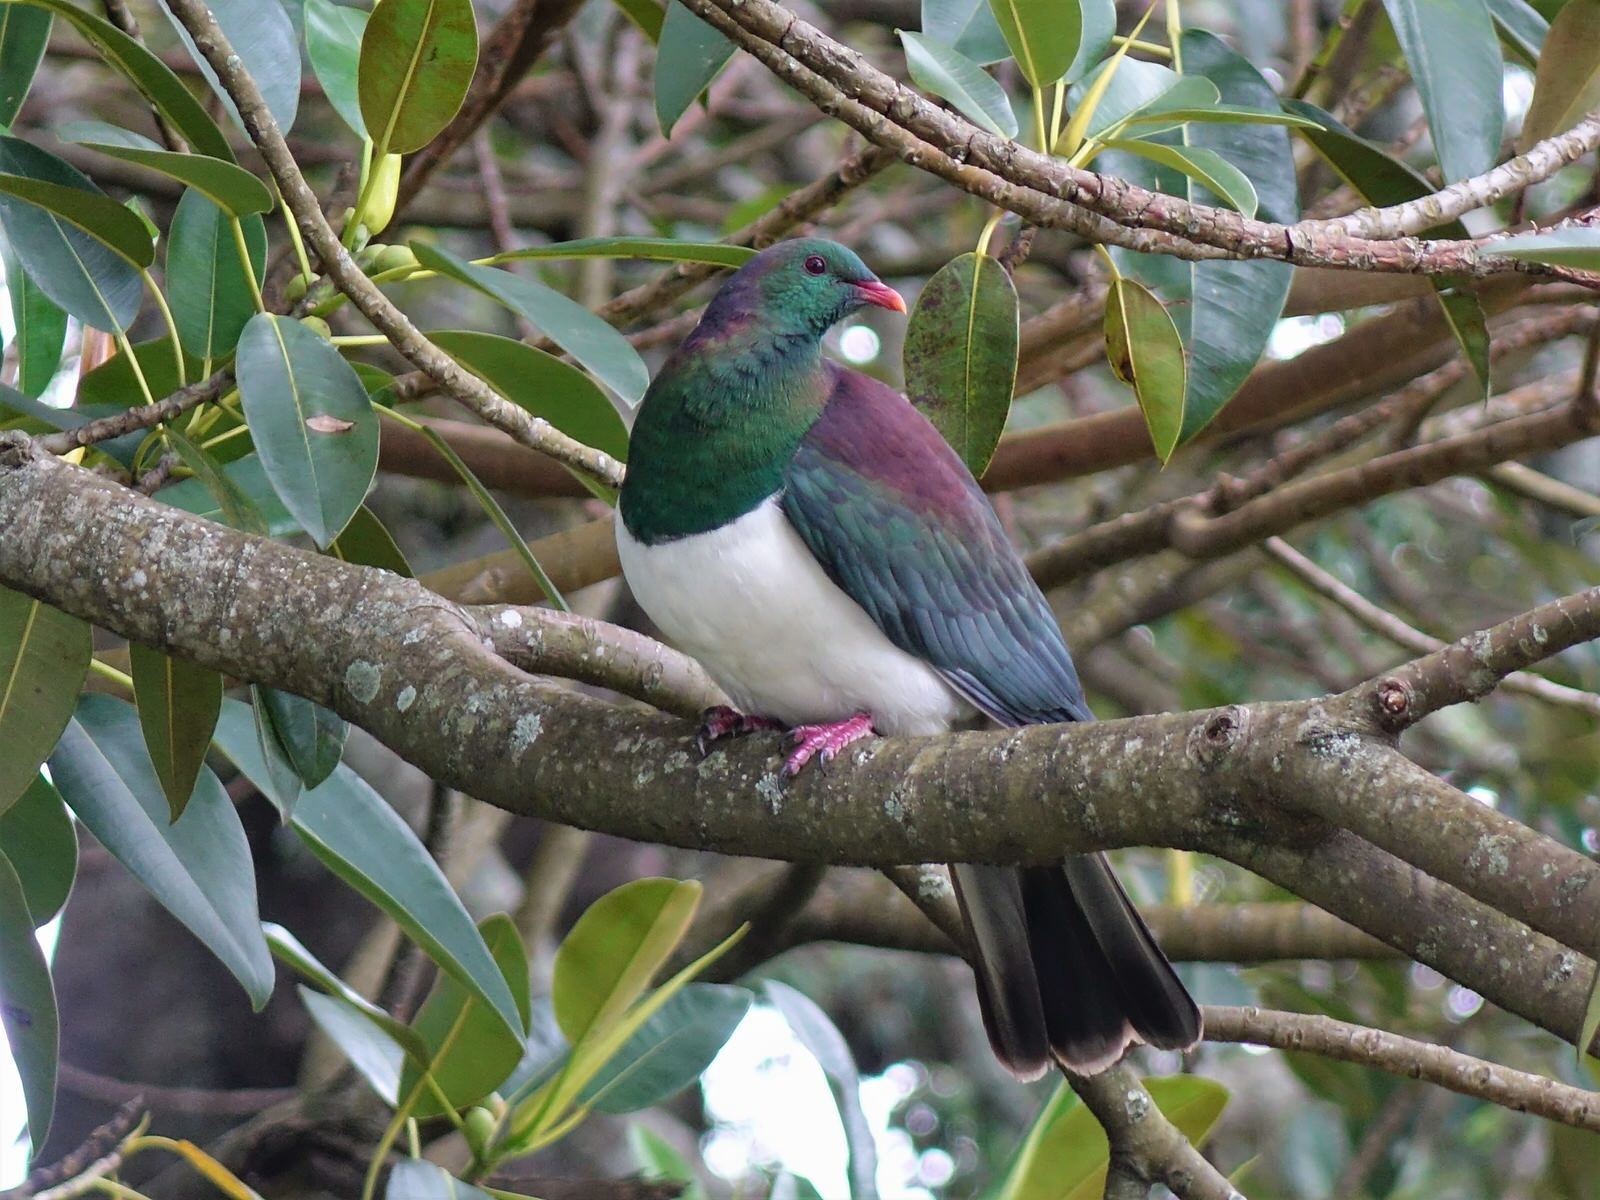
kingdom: Animalia
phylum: Chordata
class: Aves
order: Columbiformes
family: Columbidae
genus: Hemiphaga
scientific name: Hemiphaga novaeseelandiae
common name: New zealand pigeon
